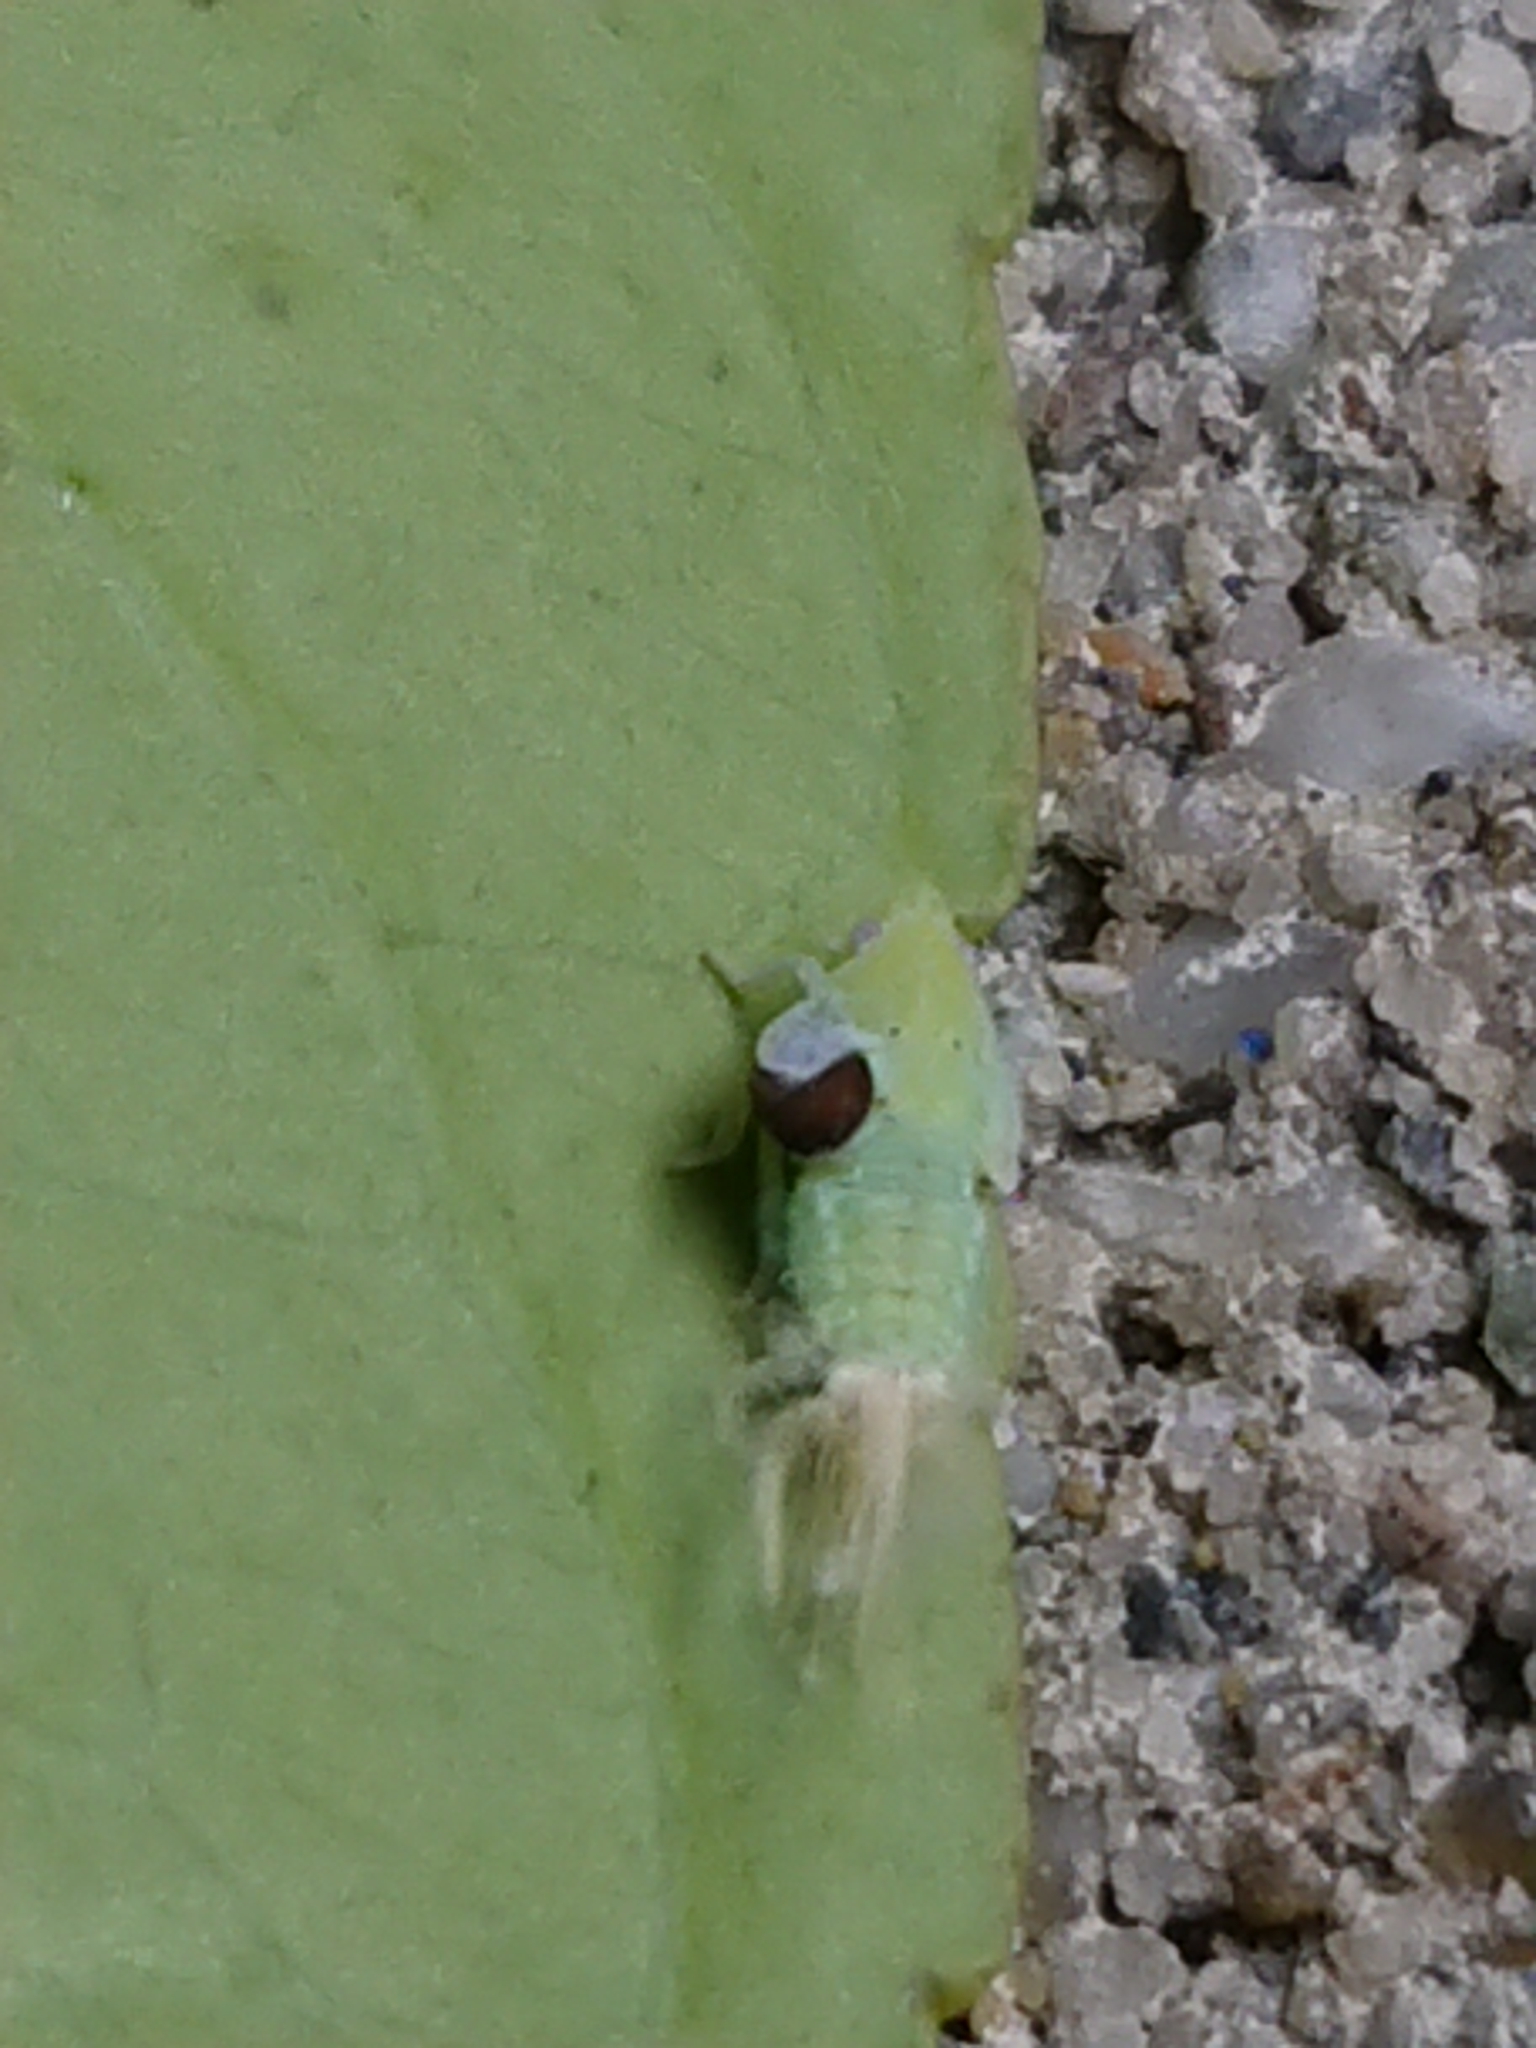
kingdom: Animalia
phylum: Arthropoda
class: Insecta
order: Hemiptera
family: Flatidae
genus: Siphanta
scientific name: Siphanta acuta
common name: Torpedo bug
